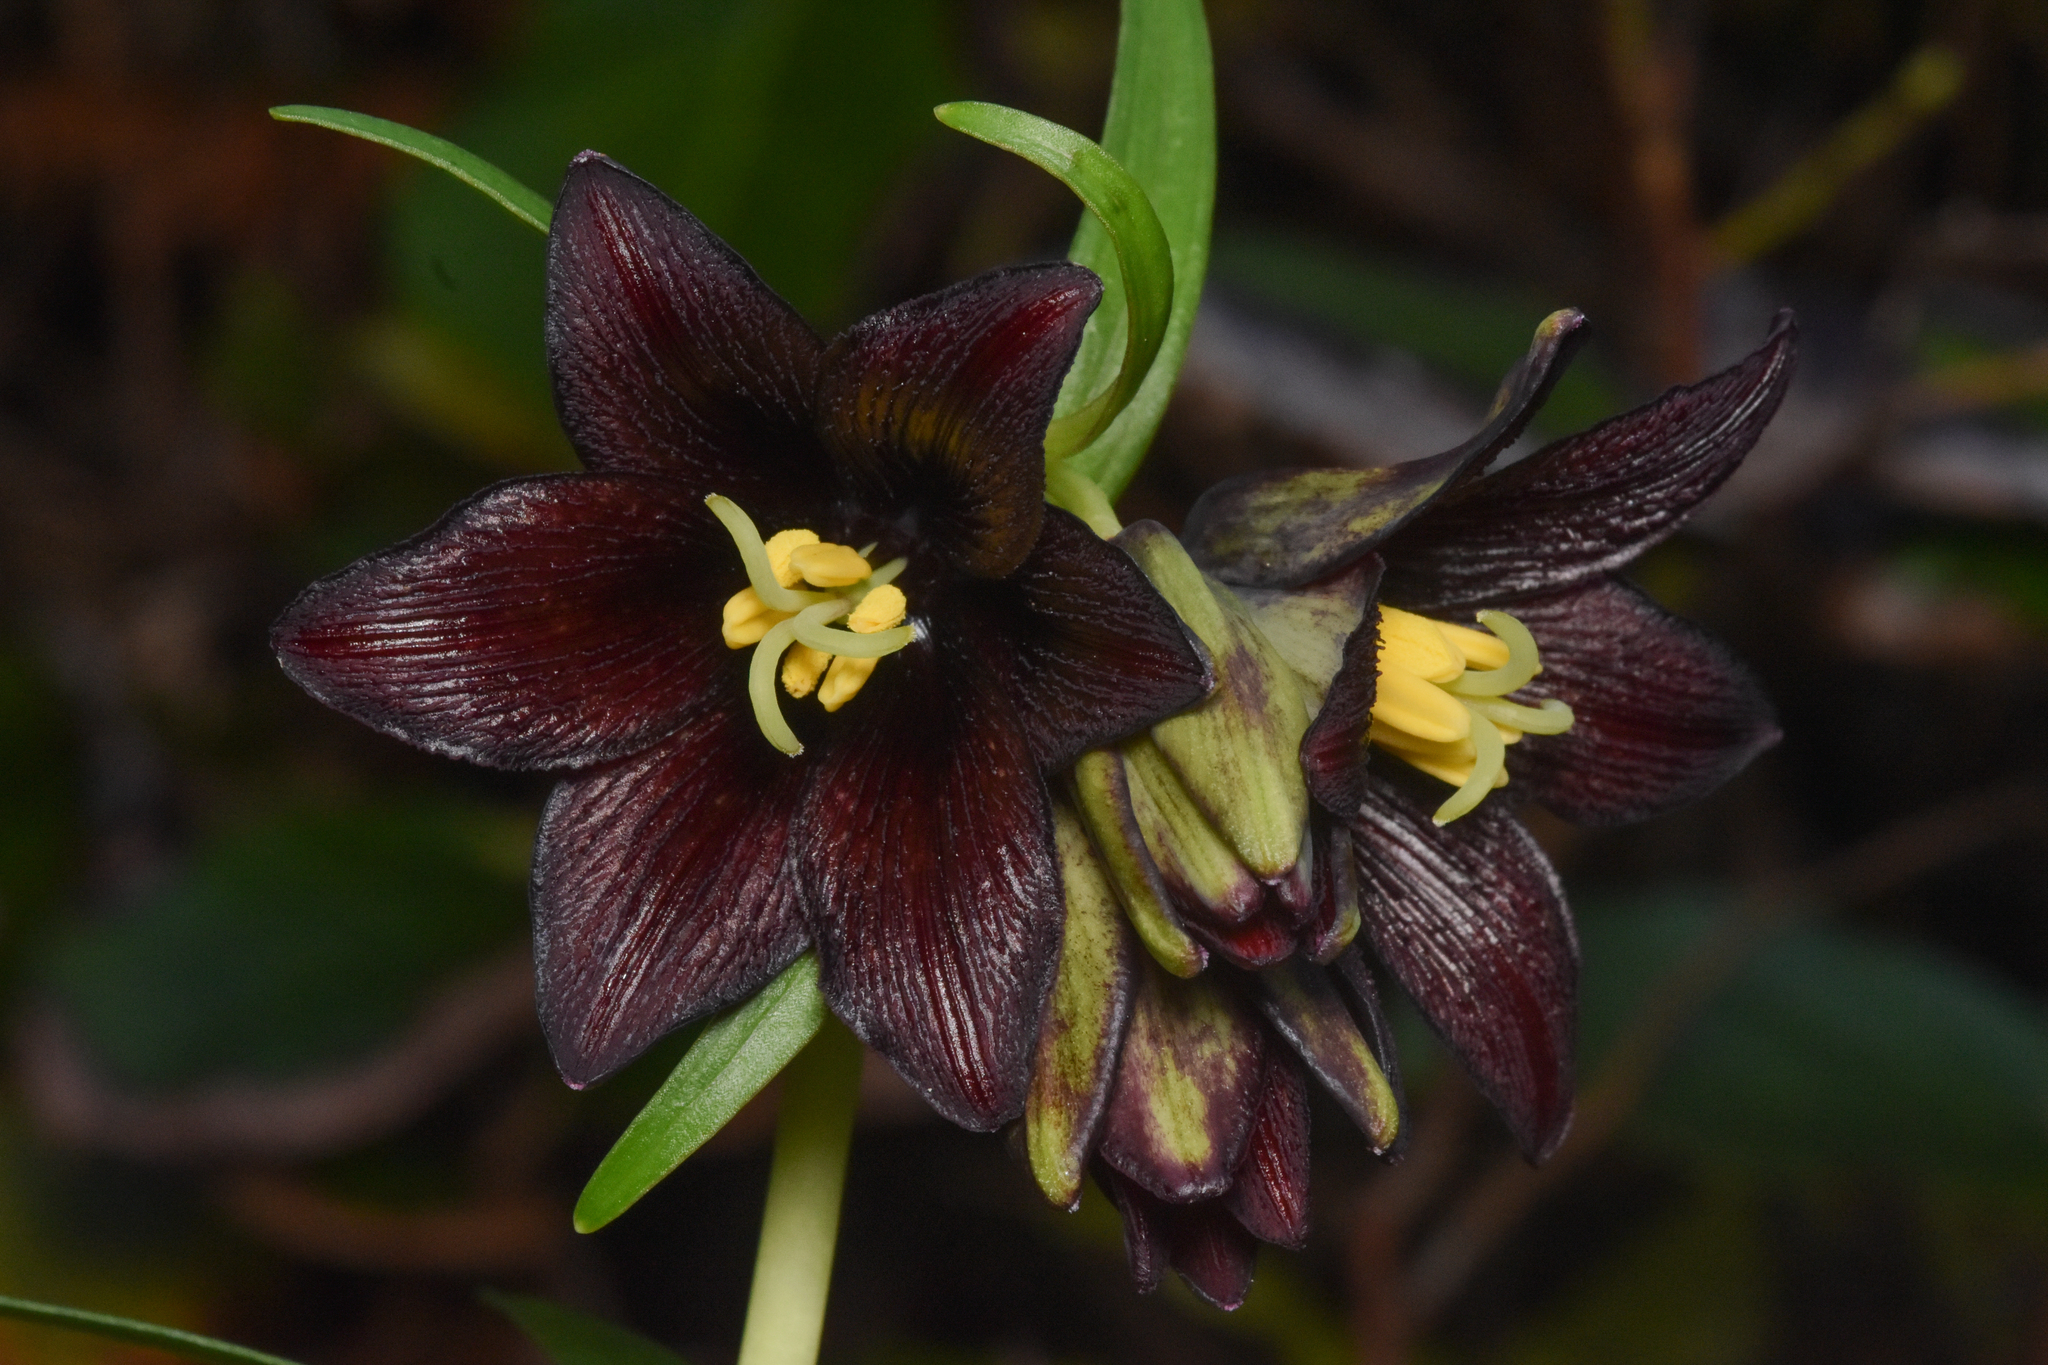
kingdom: Plantae
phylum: Tracheophyta
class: Liliopsida
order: Liliales
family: Liliaceae
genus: Fritillaria
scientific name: Fritillaria camschatcensis
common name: Kamchatka fritillary
